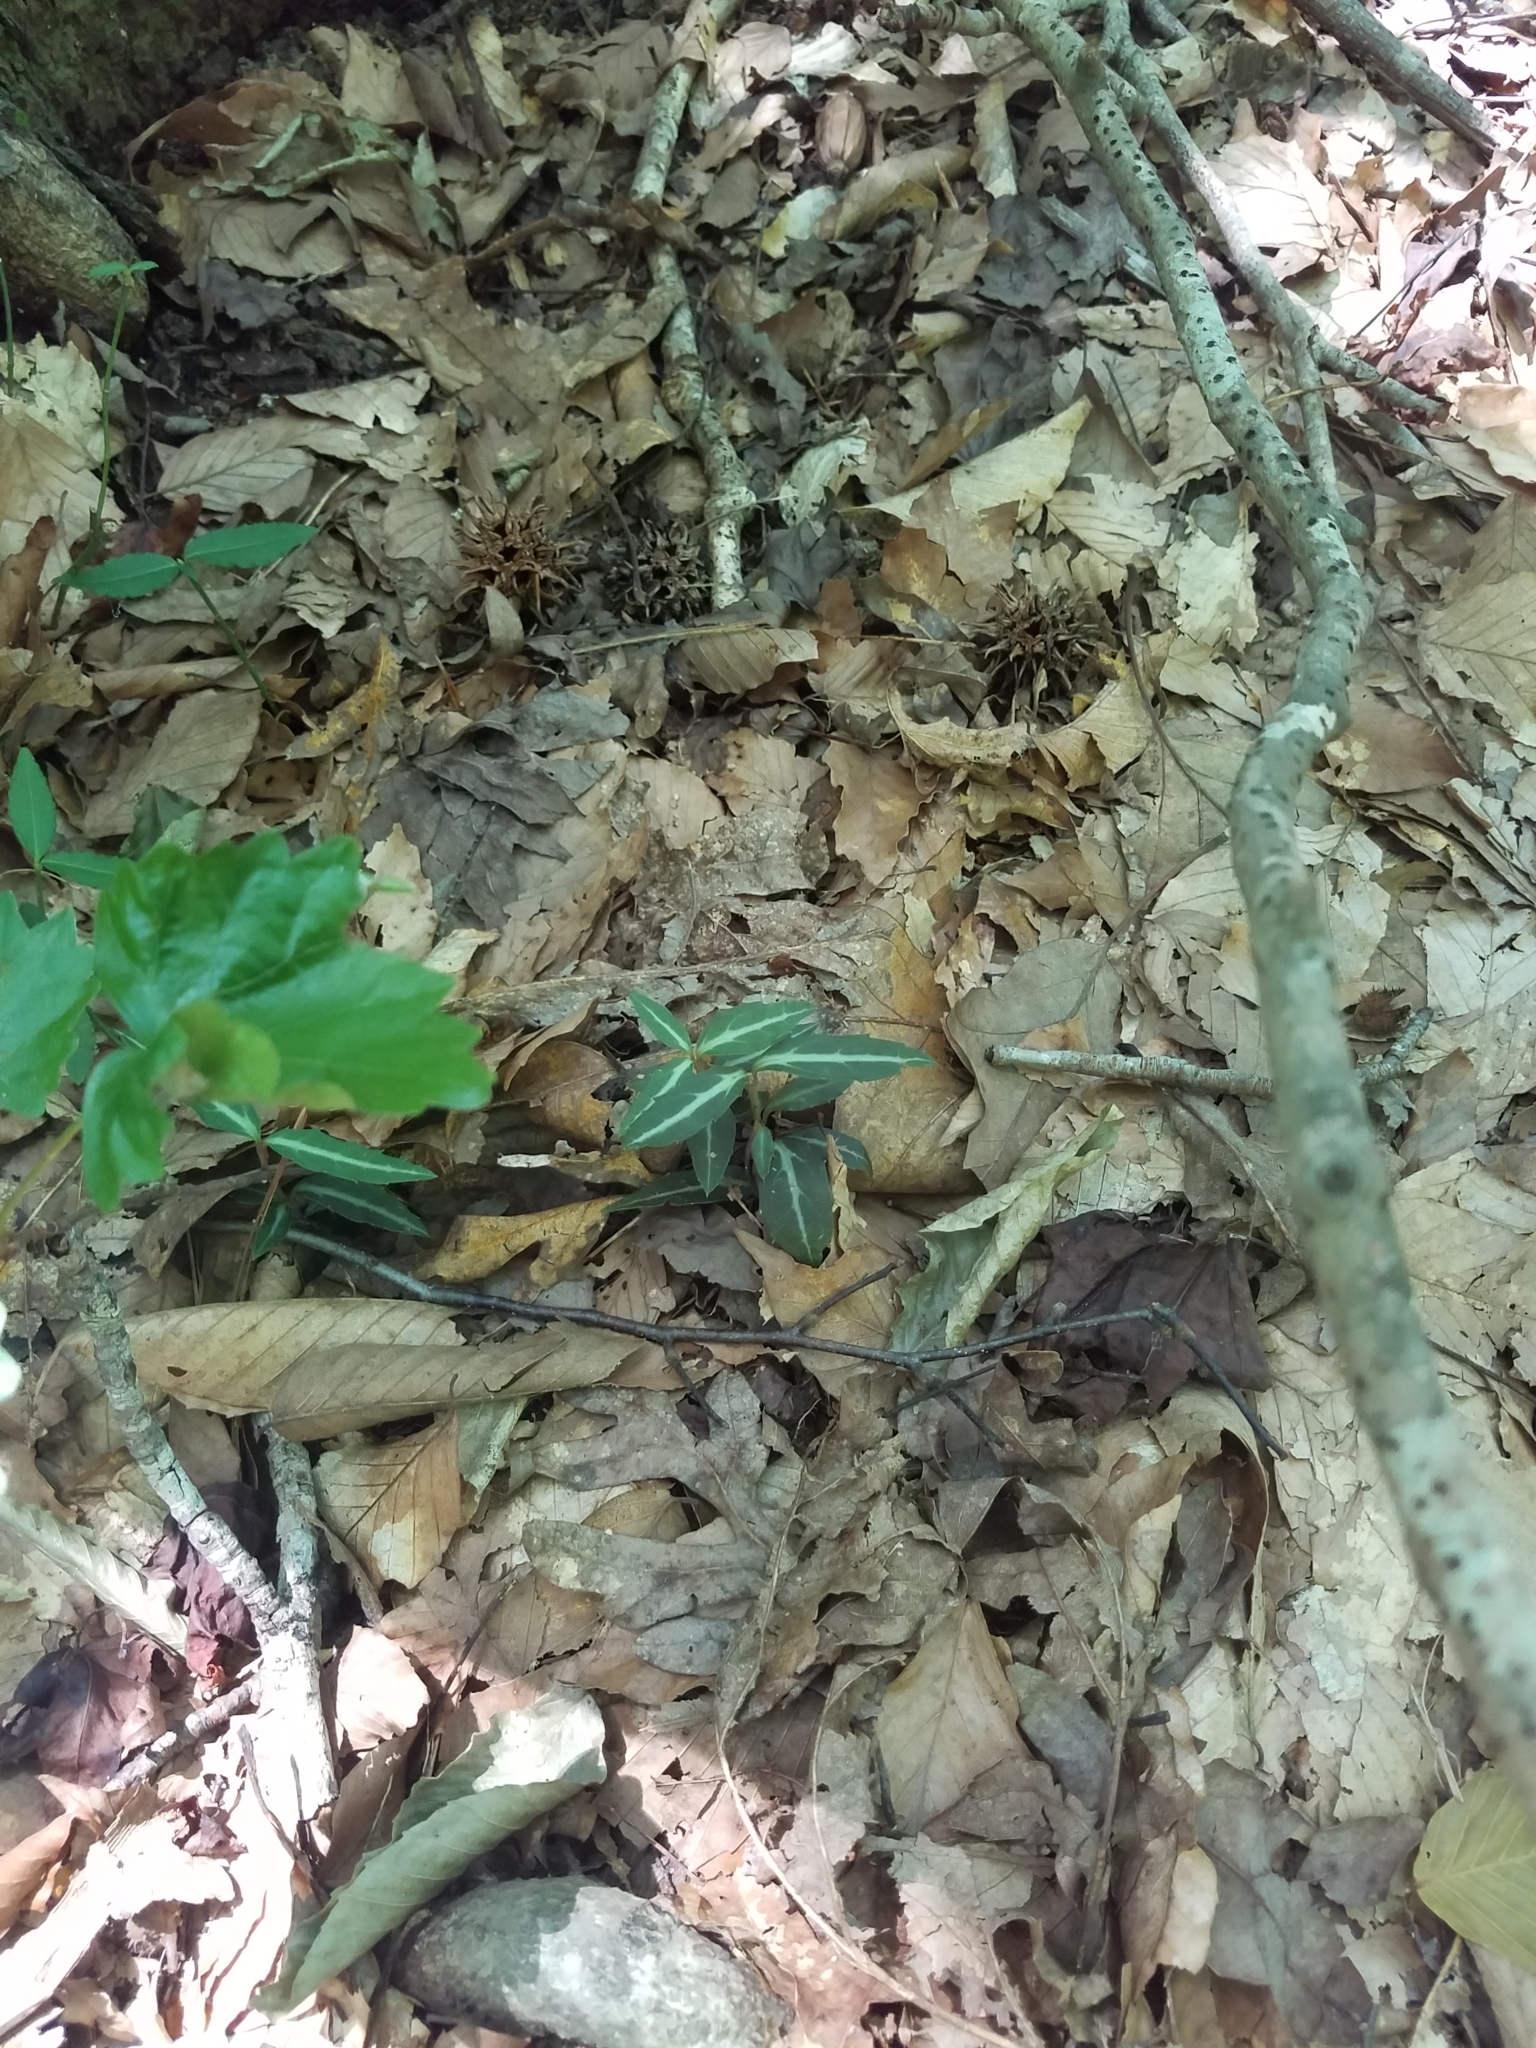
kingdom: Plantae
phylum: Tracheophyta
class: Magnoliopsida
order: Ericales
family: Ericaceae
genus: Chimaphila
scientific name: Chimaphila maculata
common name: Spotted pipsissewa
